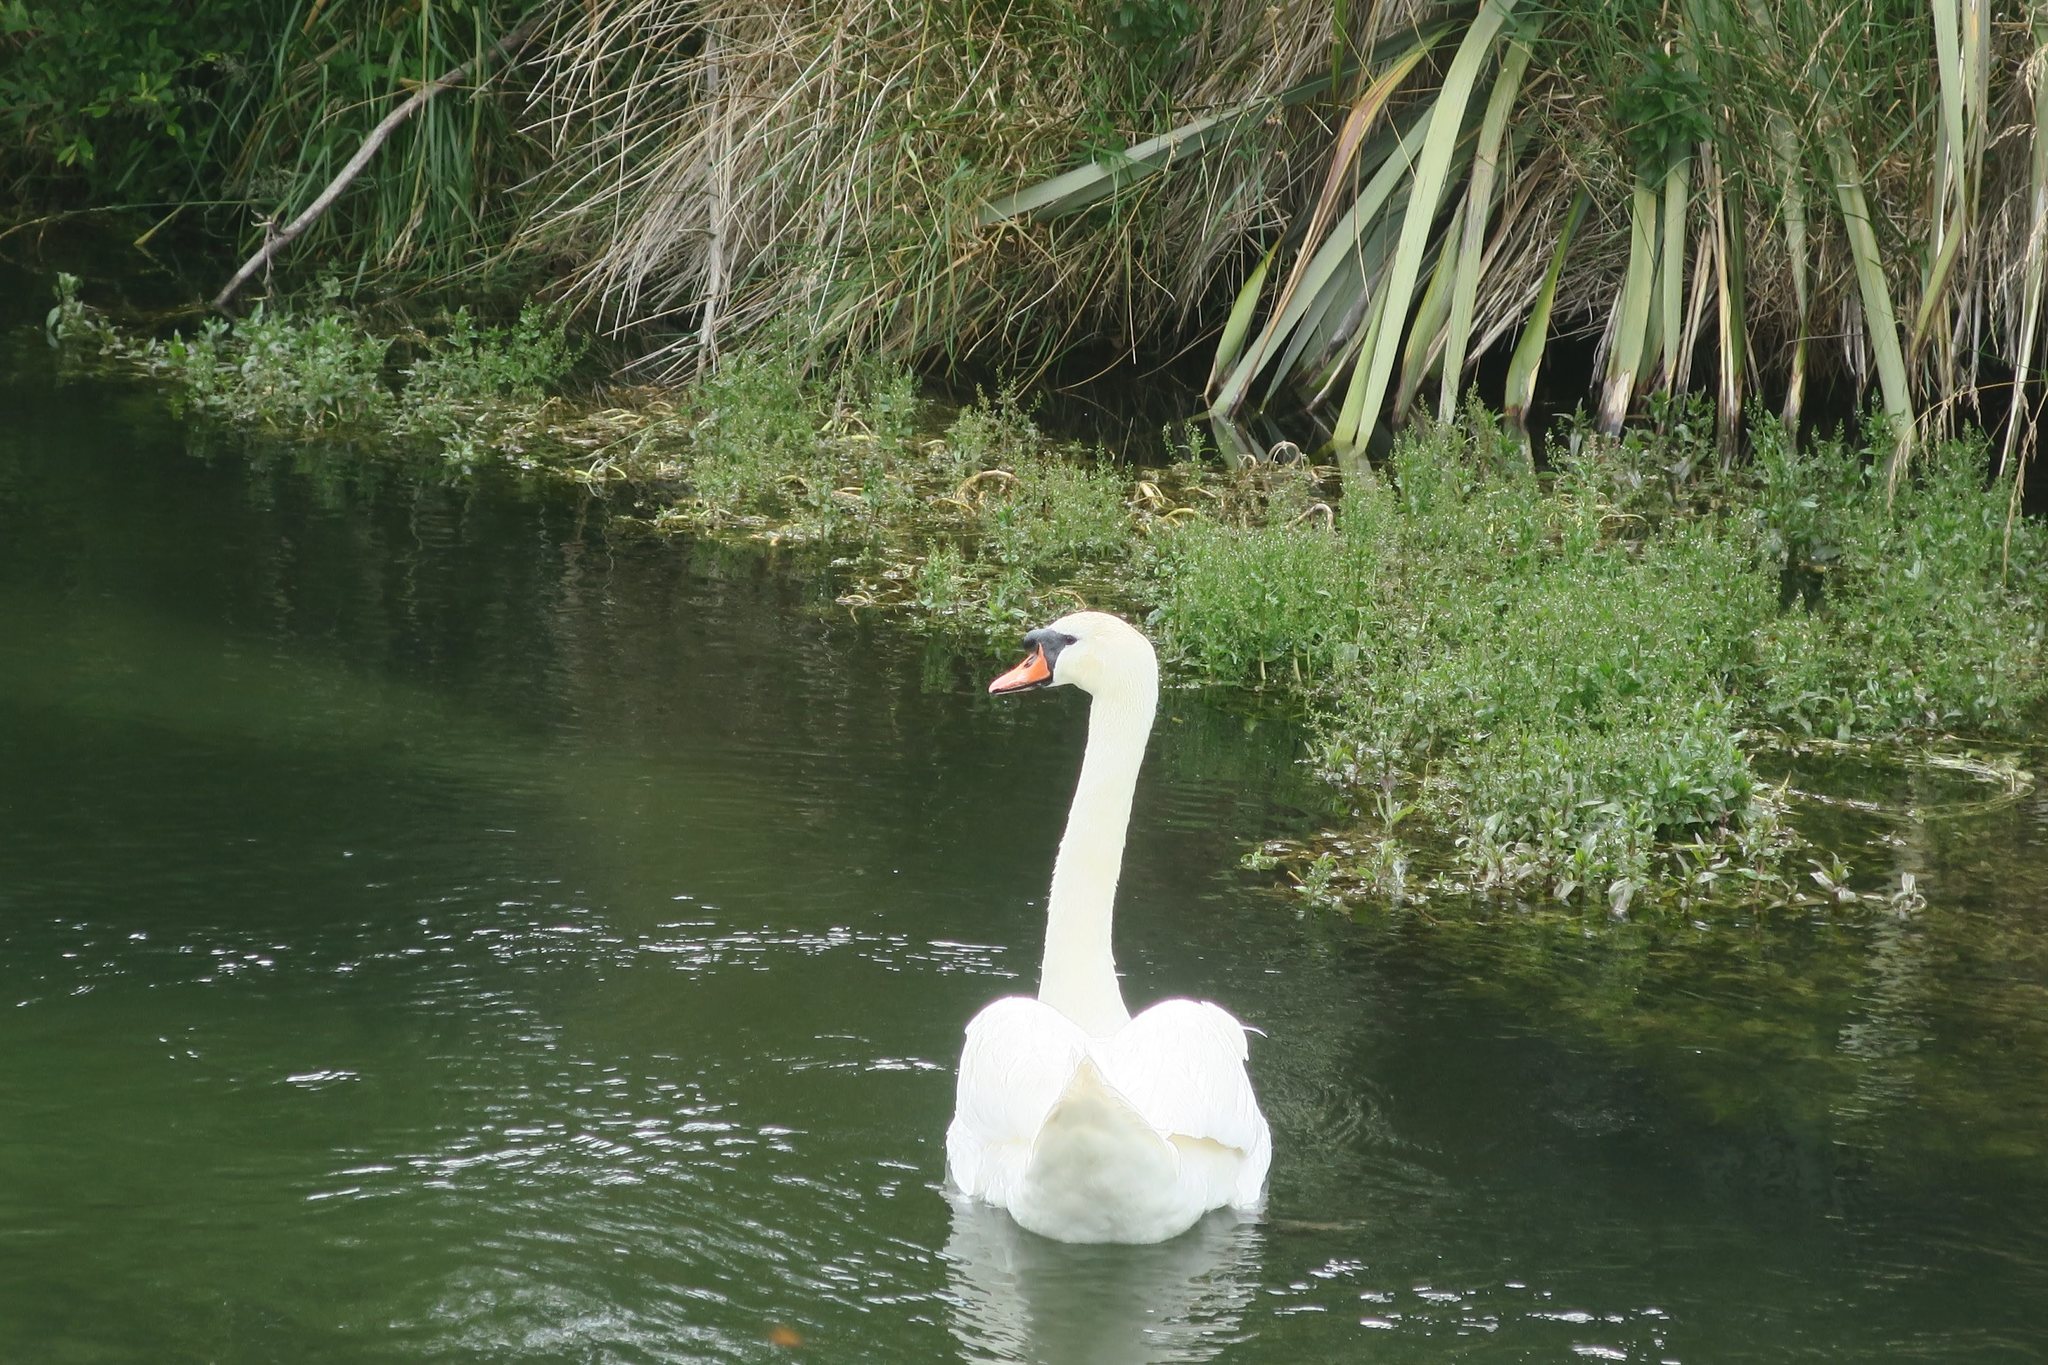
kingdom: Animalia
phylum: Chordata
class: Aves
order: Anseriformes
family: Anatidae
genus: Cygnus
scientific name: Cygnus olor
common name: Mute swan
